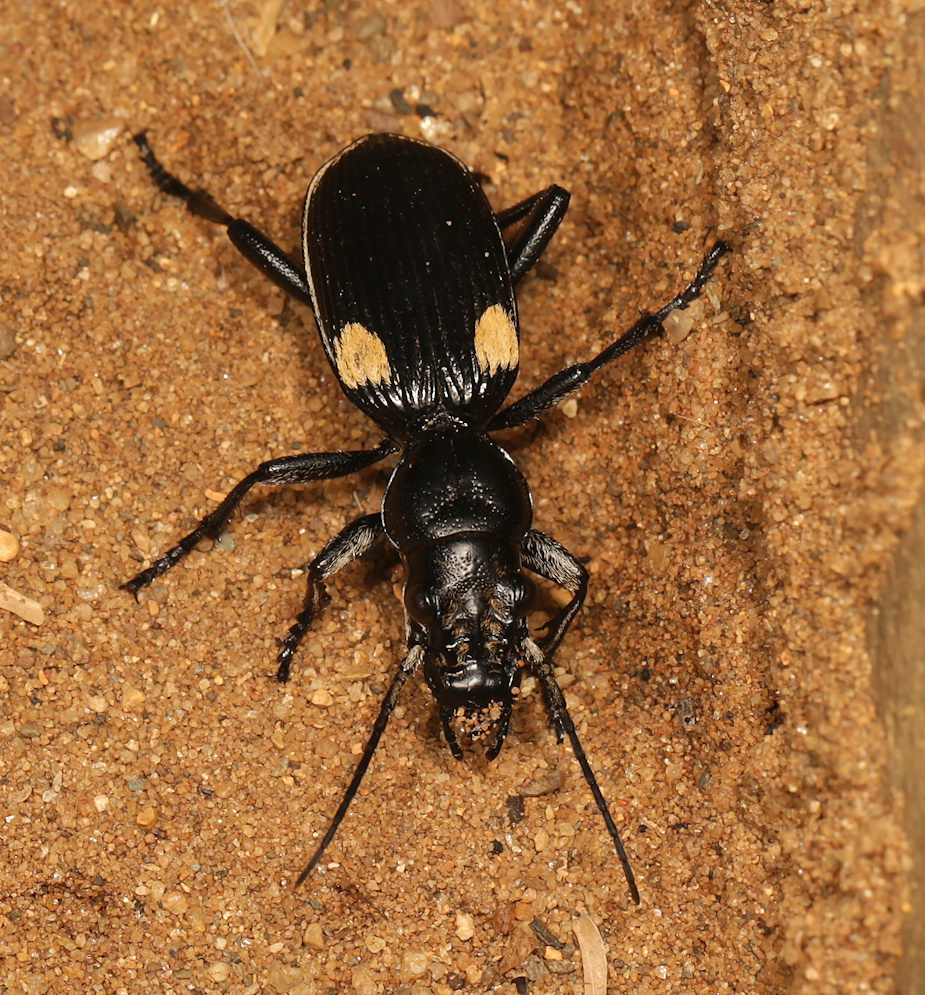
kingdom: Animalia
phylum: Arthropoda
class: Insecta
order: Coleoptera
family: Carabidae
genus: Anthia
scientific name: Anthia cephalotes
